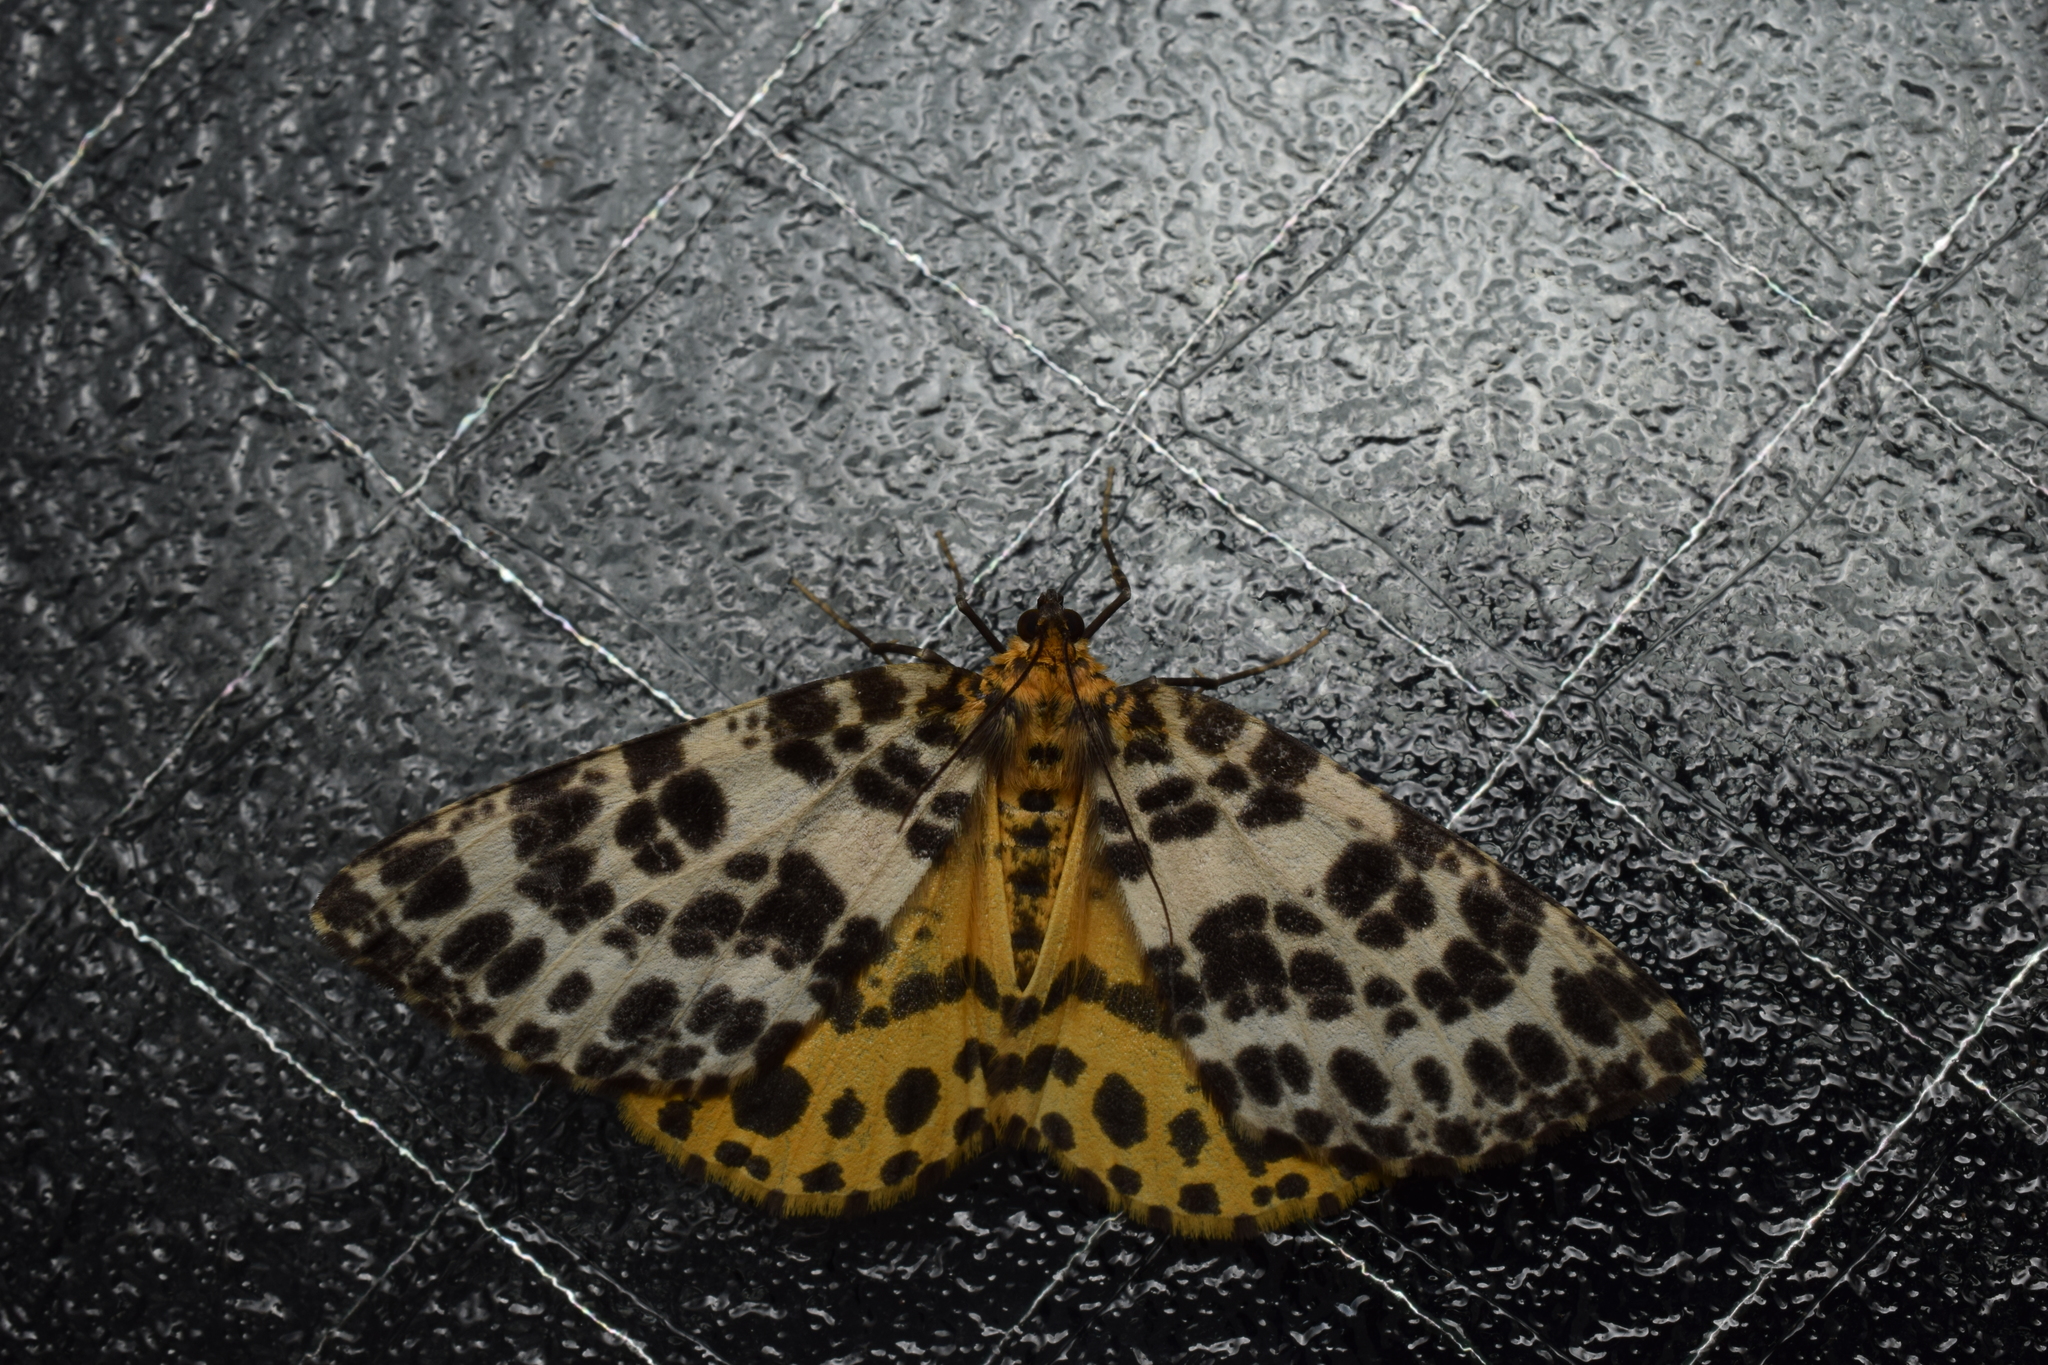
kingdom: Animalia
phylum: Arthropoda
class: Insecta
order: Lepidoptera
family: Geometridae
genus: Arichanna
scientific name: Arichanna melanaria
